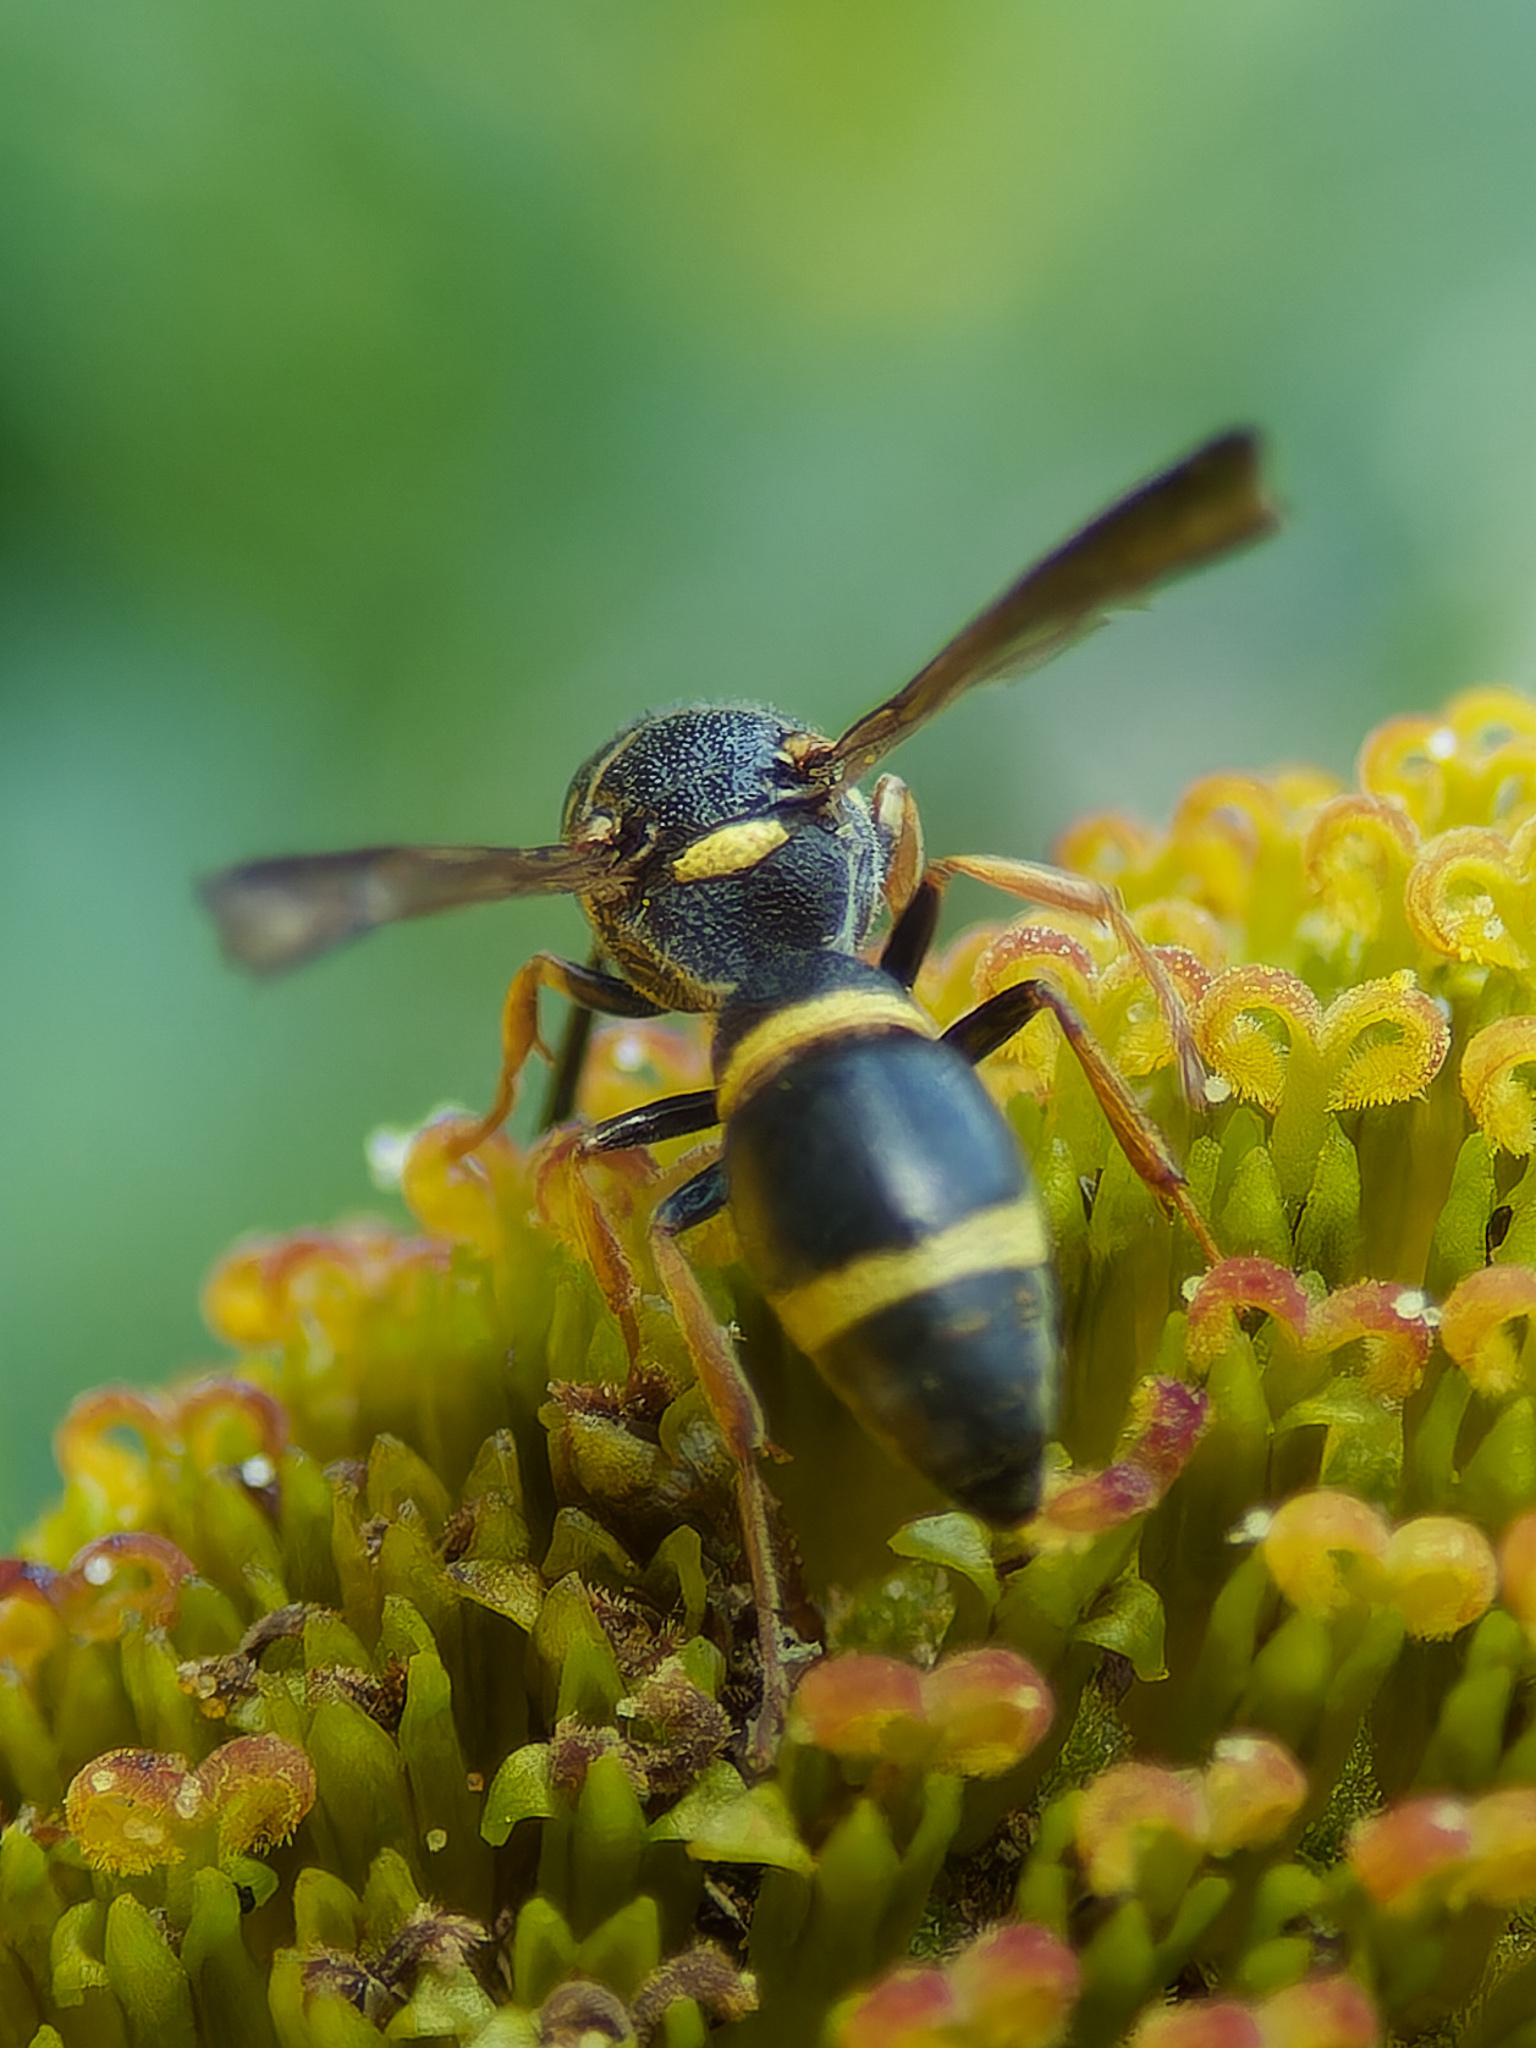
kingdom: Animalia
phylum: Arthropoda
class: Insecta
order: Hymenoptera
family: Eumenidae
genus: Parancistrocerus
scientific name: Parancistrocerus perennis
